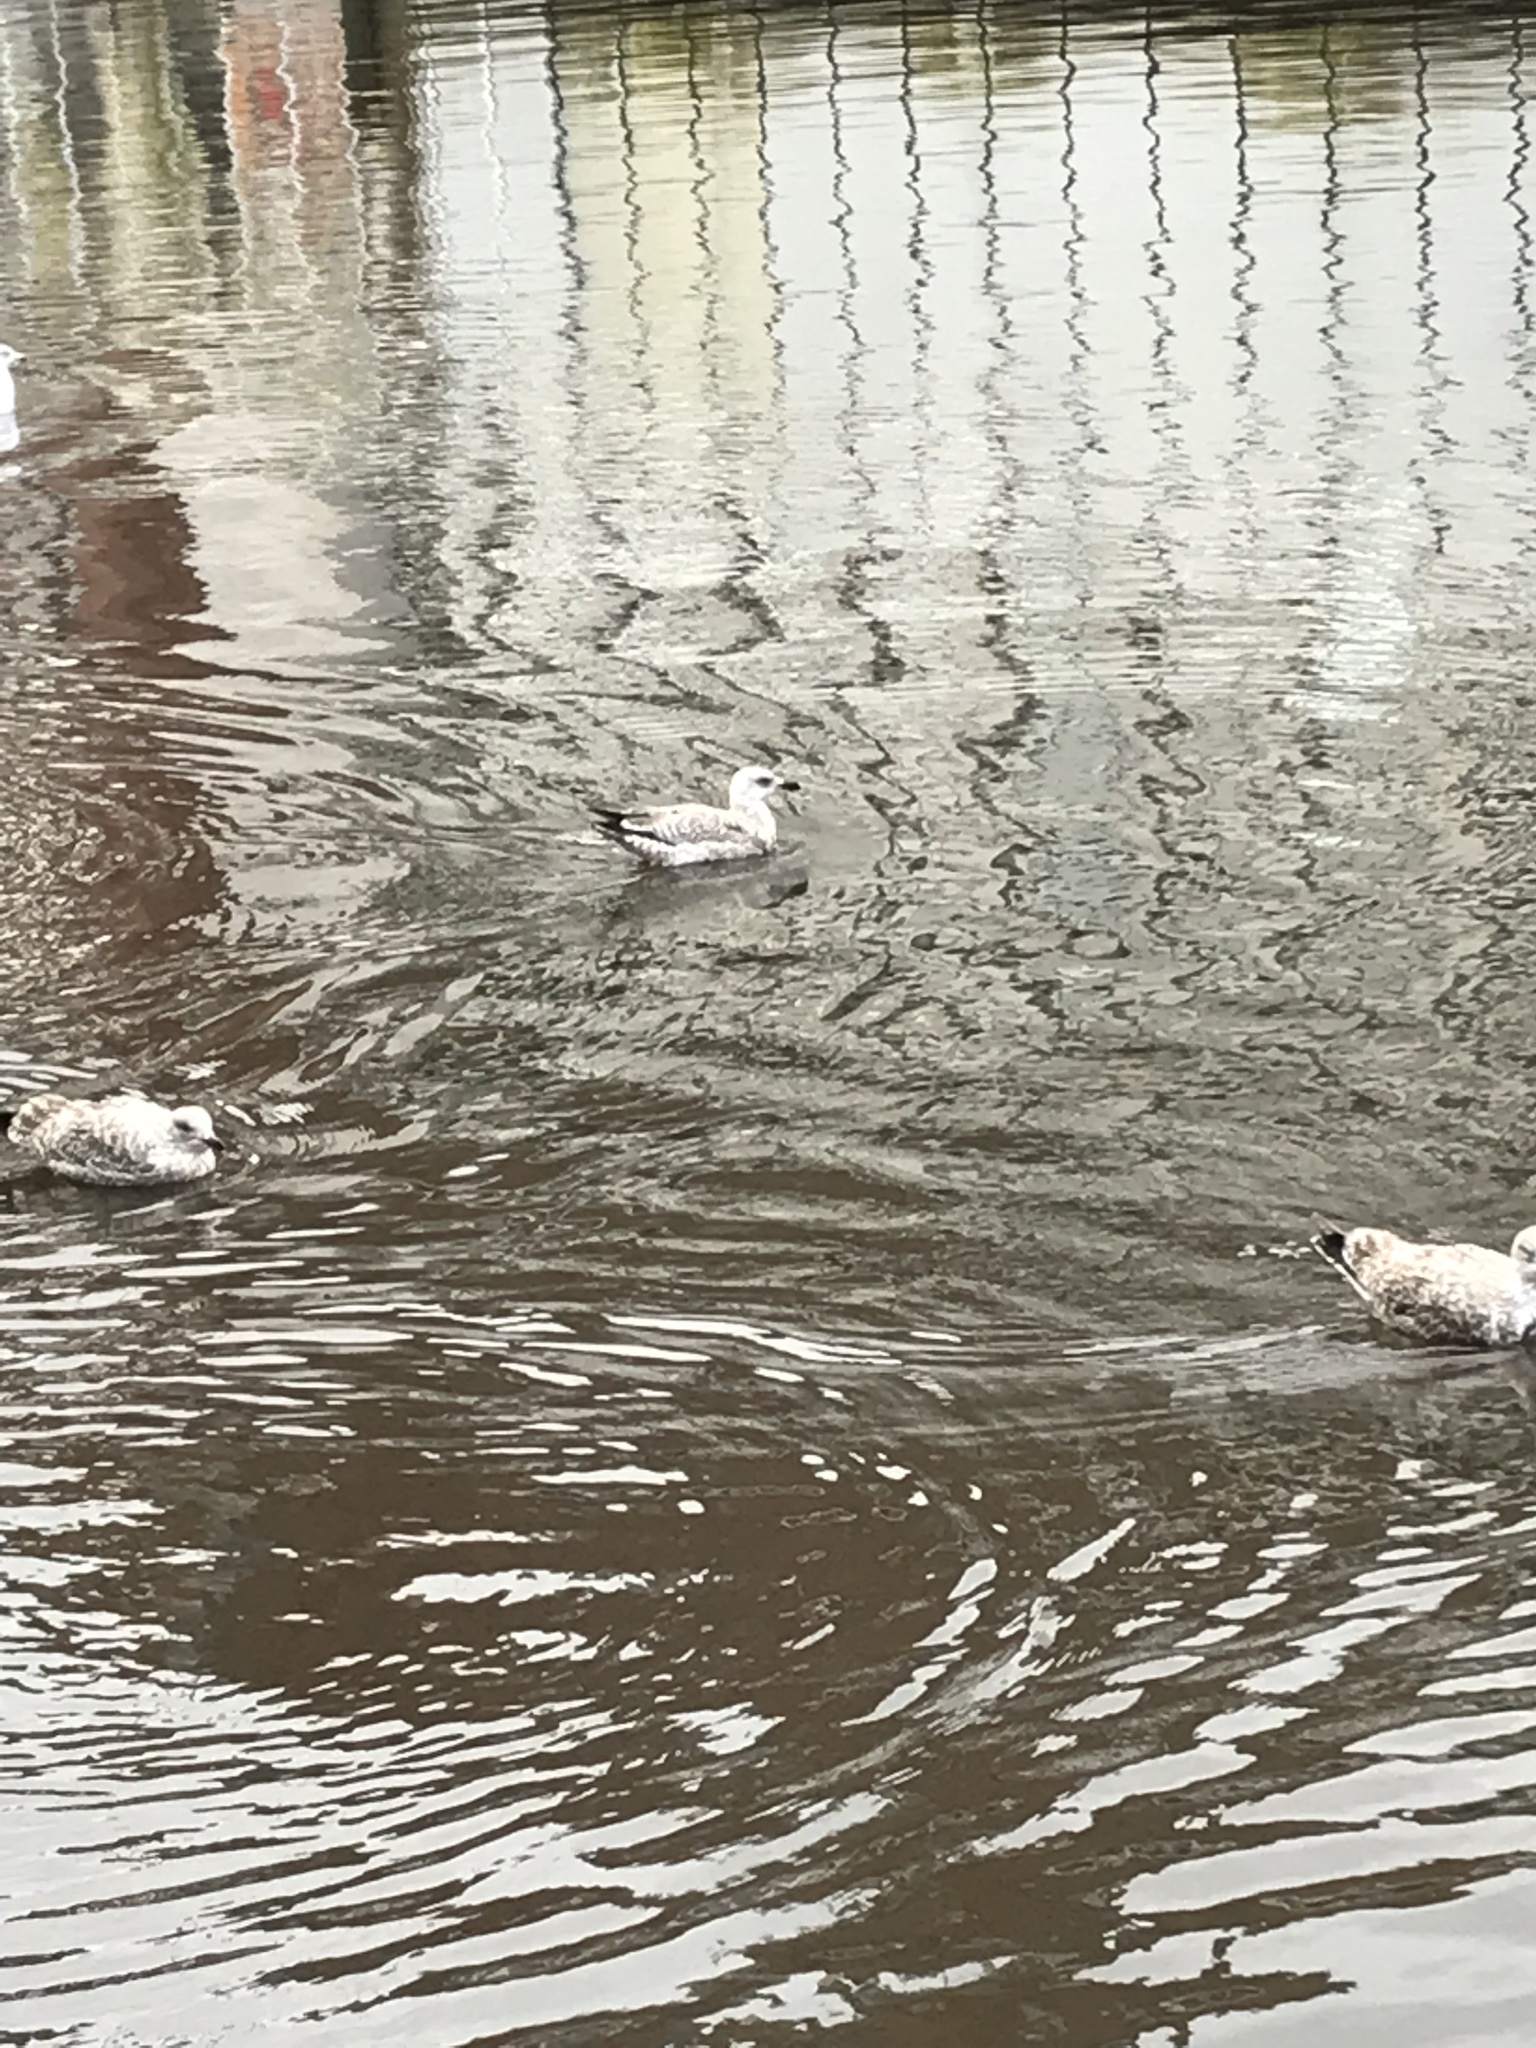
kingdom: Animalia
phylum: Chordata
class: Aves
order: Charadriiformes
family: Laridae
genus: Larus
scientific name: Larus argentatus
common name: Herring gull
